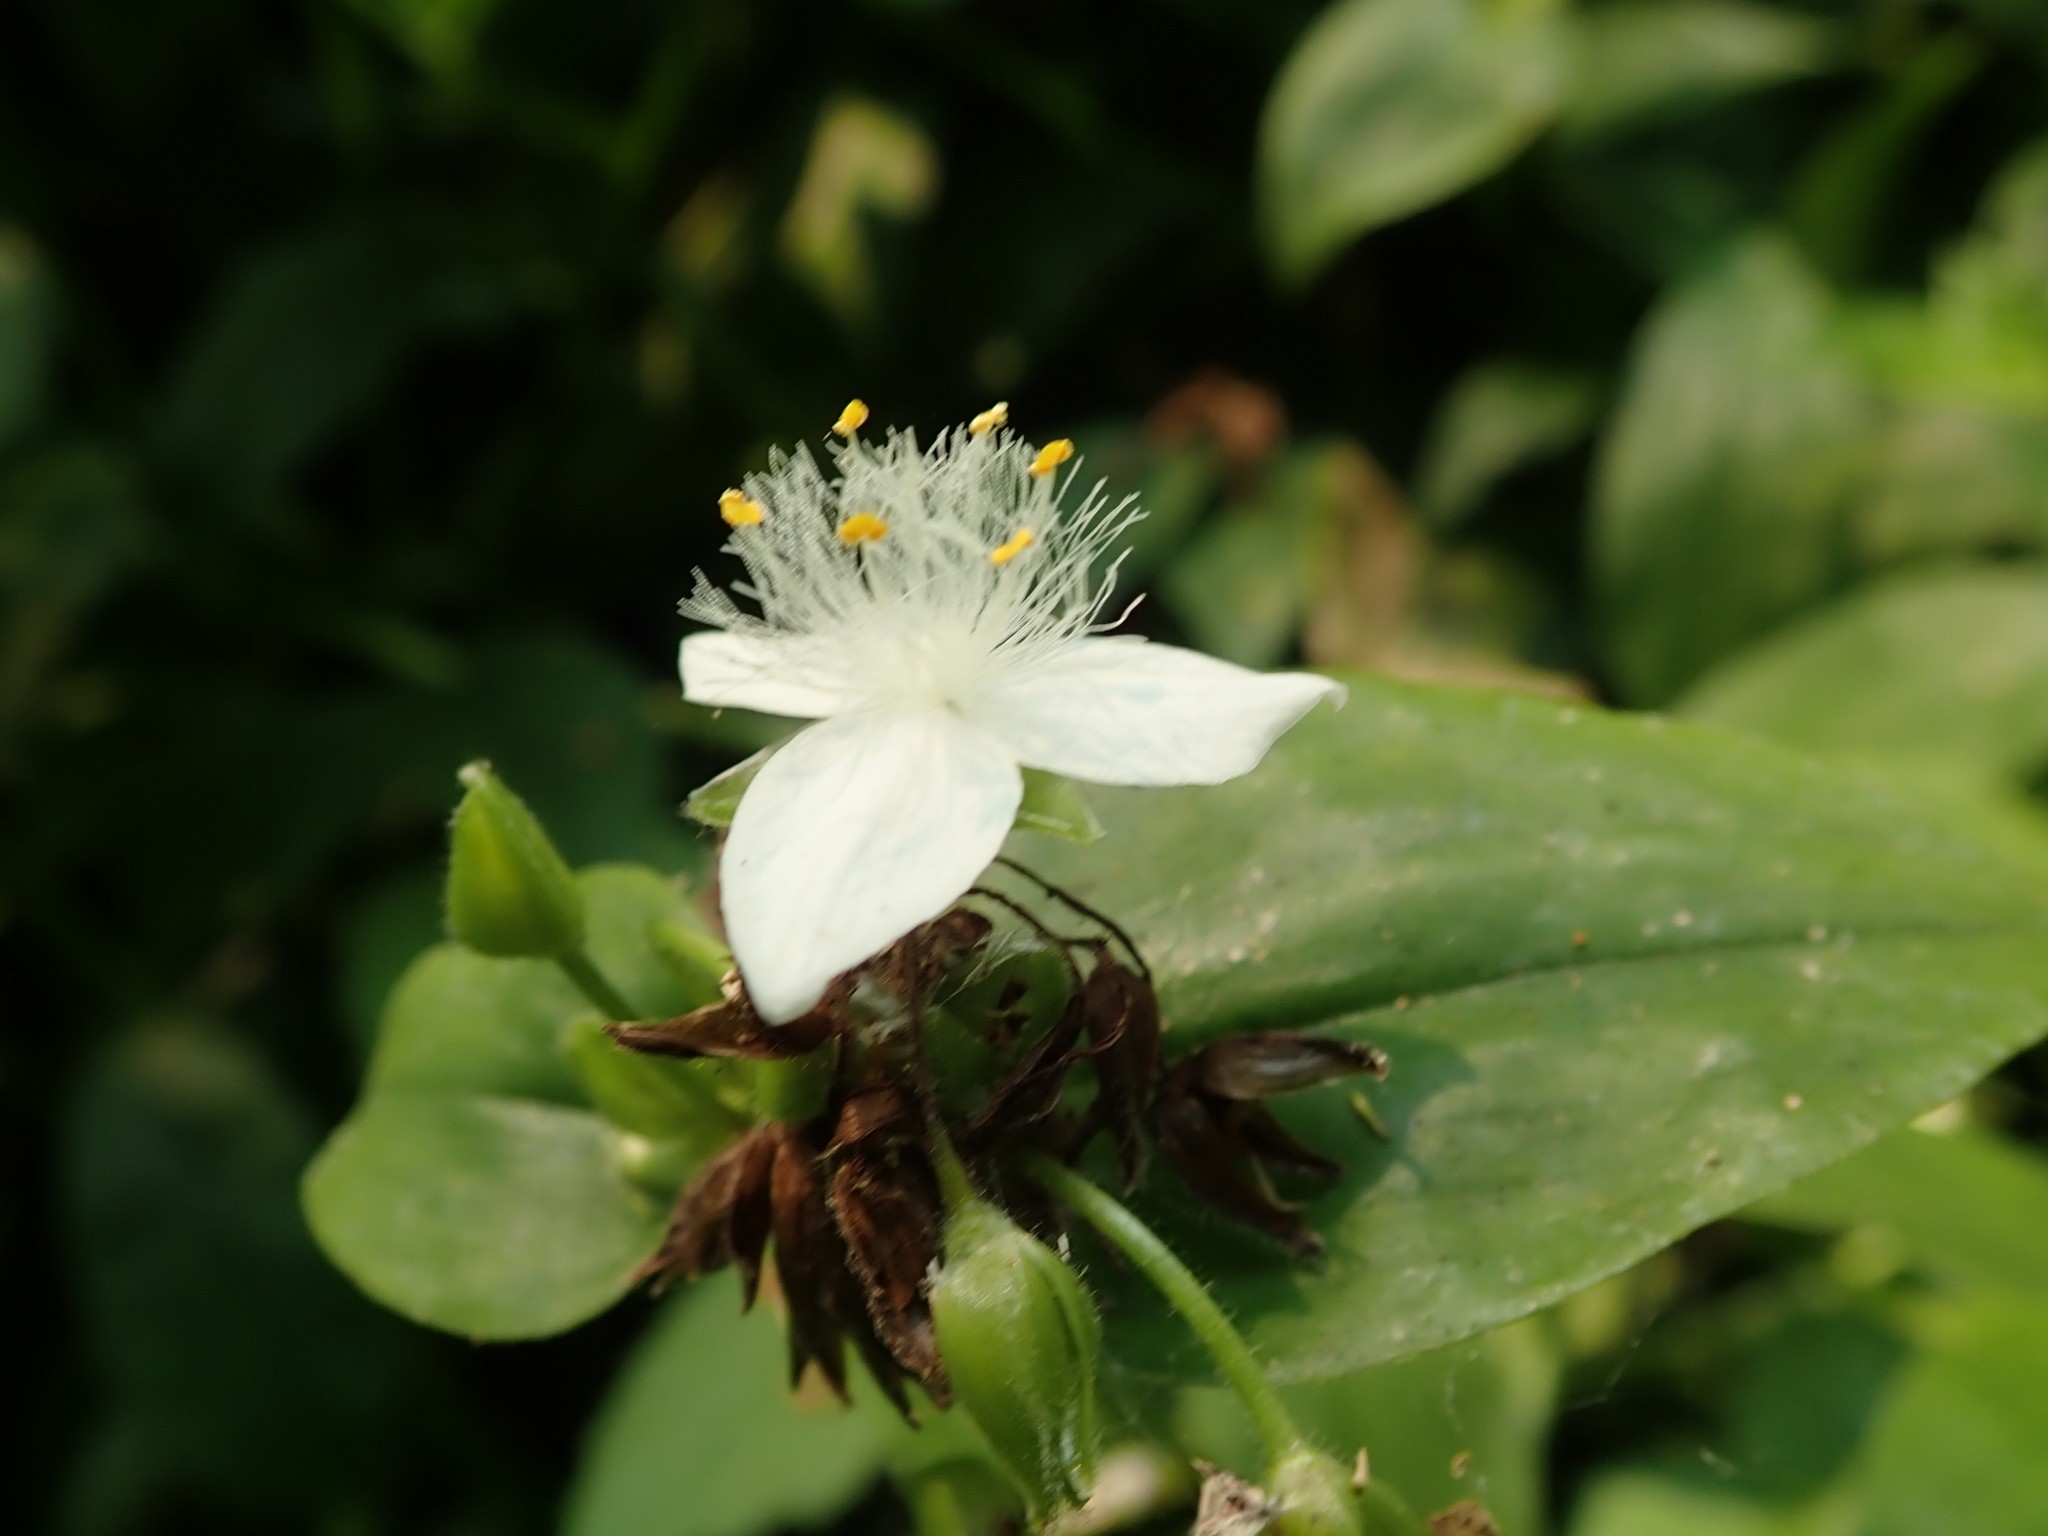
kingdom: Plantae
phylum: Tracheophyta
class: Liliopsida
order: Commelinales
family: Commelinaceae
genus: Tradescantia
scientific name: Tradescantia fluminensis
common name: Wandering-jew
